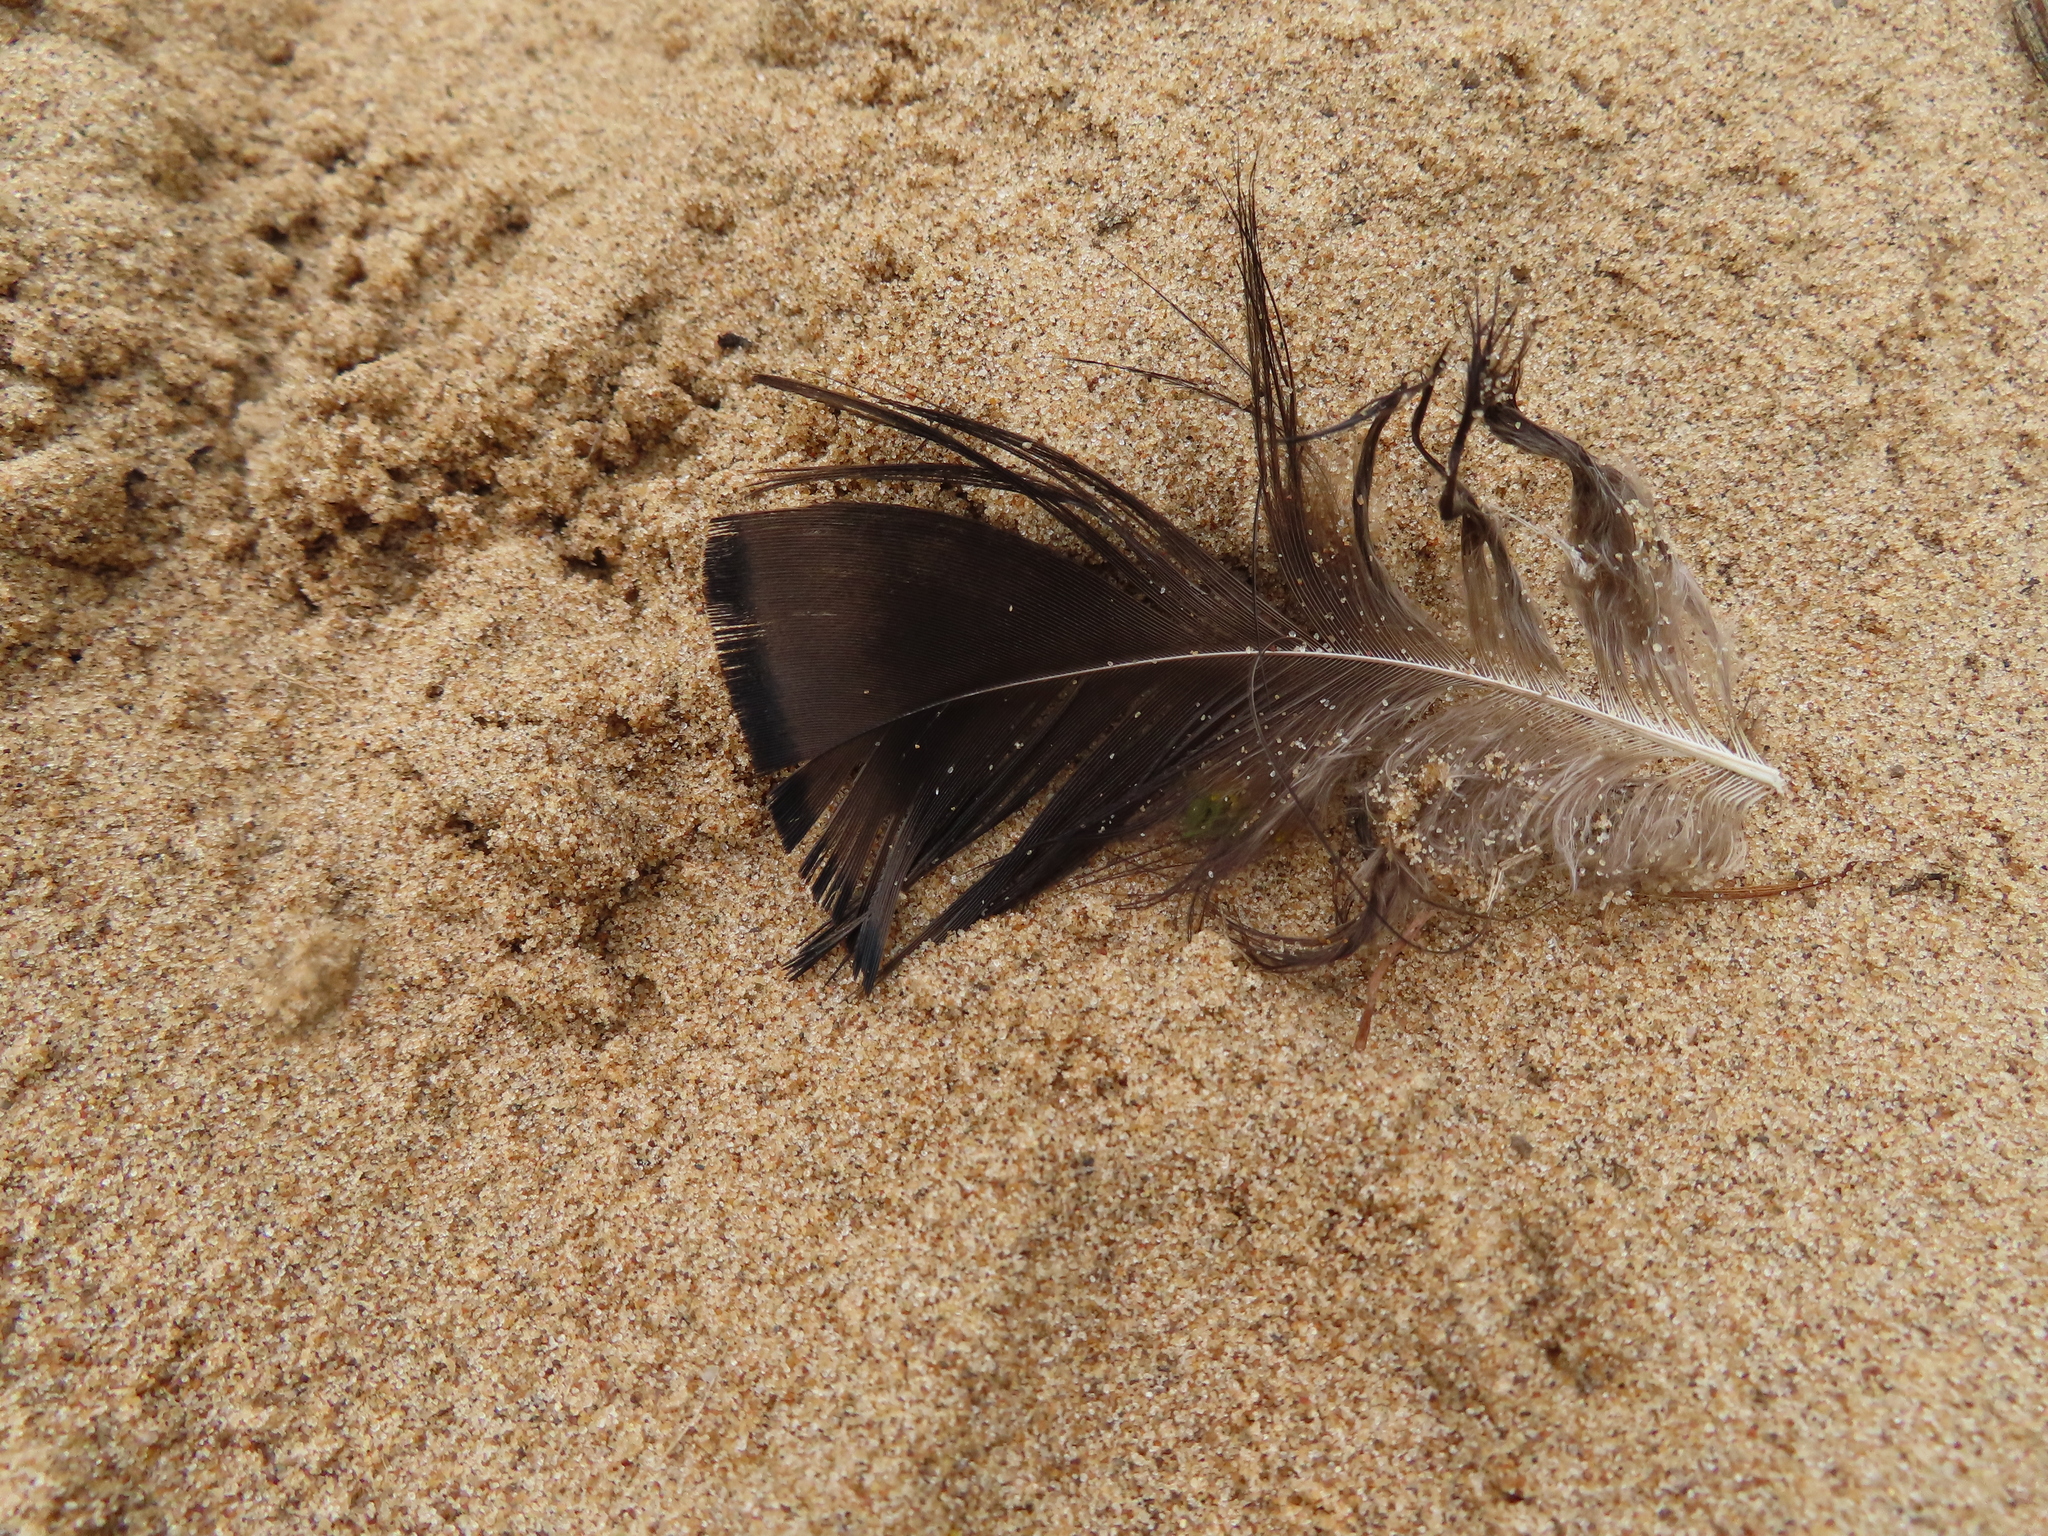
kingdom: Animalia
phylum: Chordata
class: Aves
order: Galliformes
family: Phasianidae
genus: Meleagris
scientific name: Meleagris gallopavo
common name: Wild turkey
